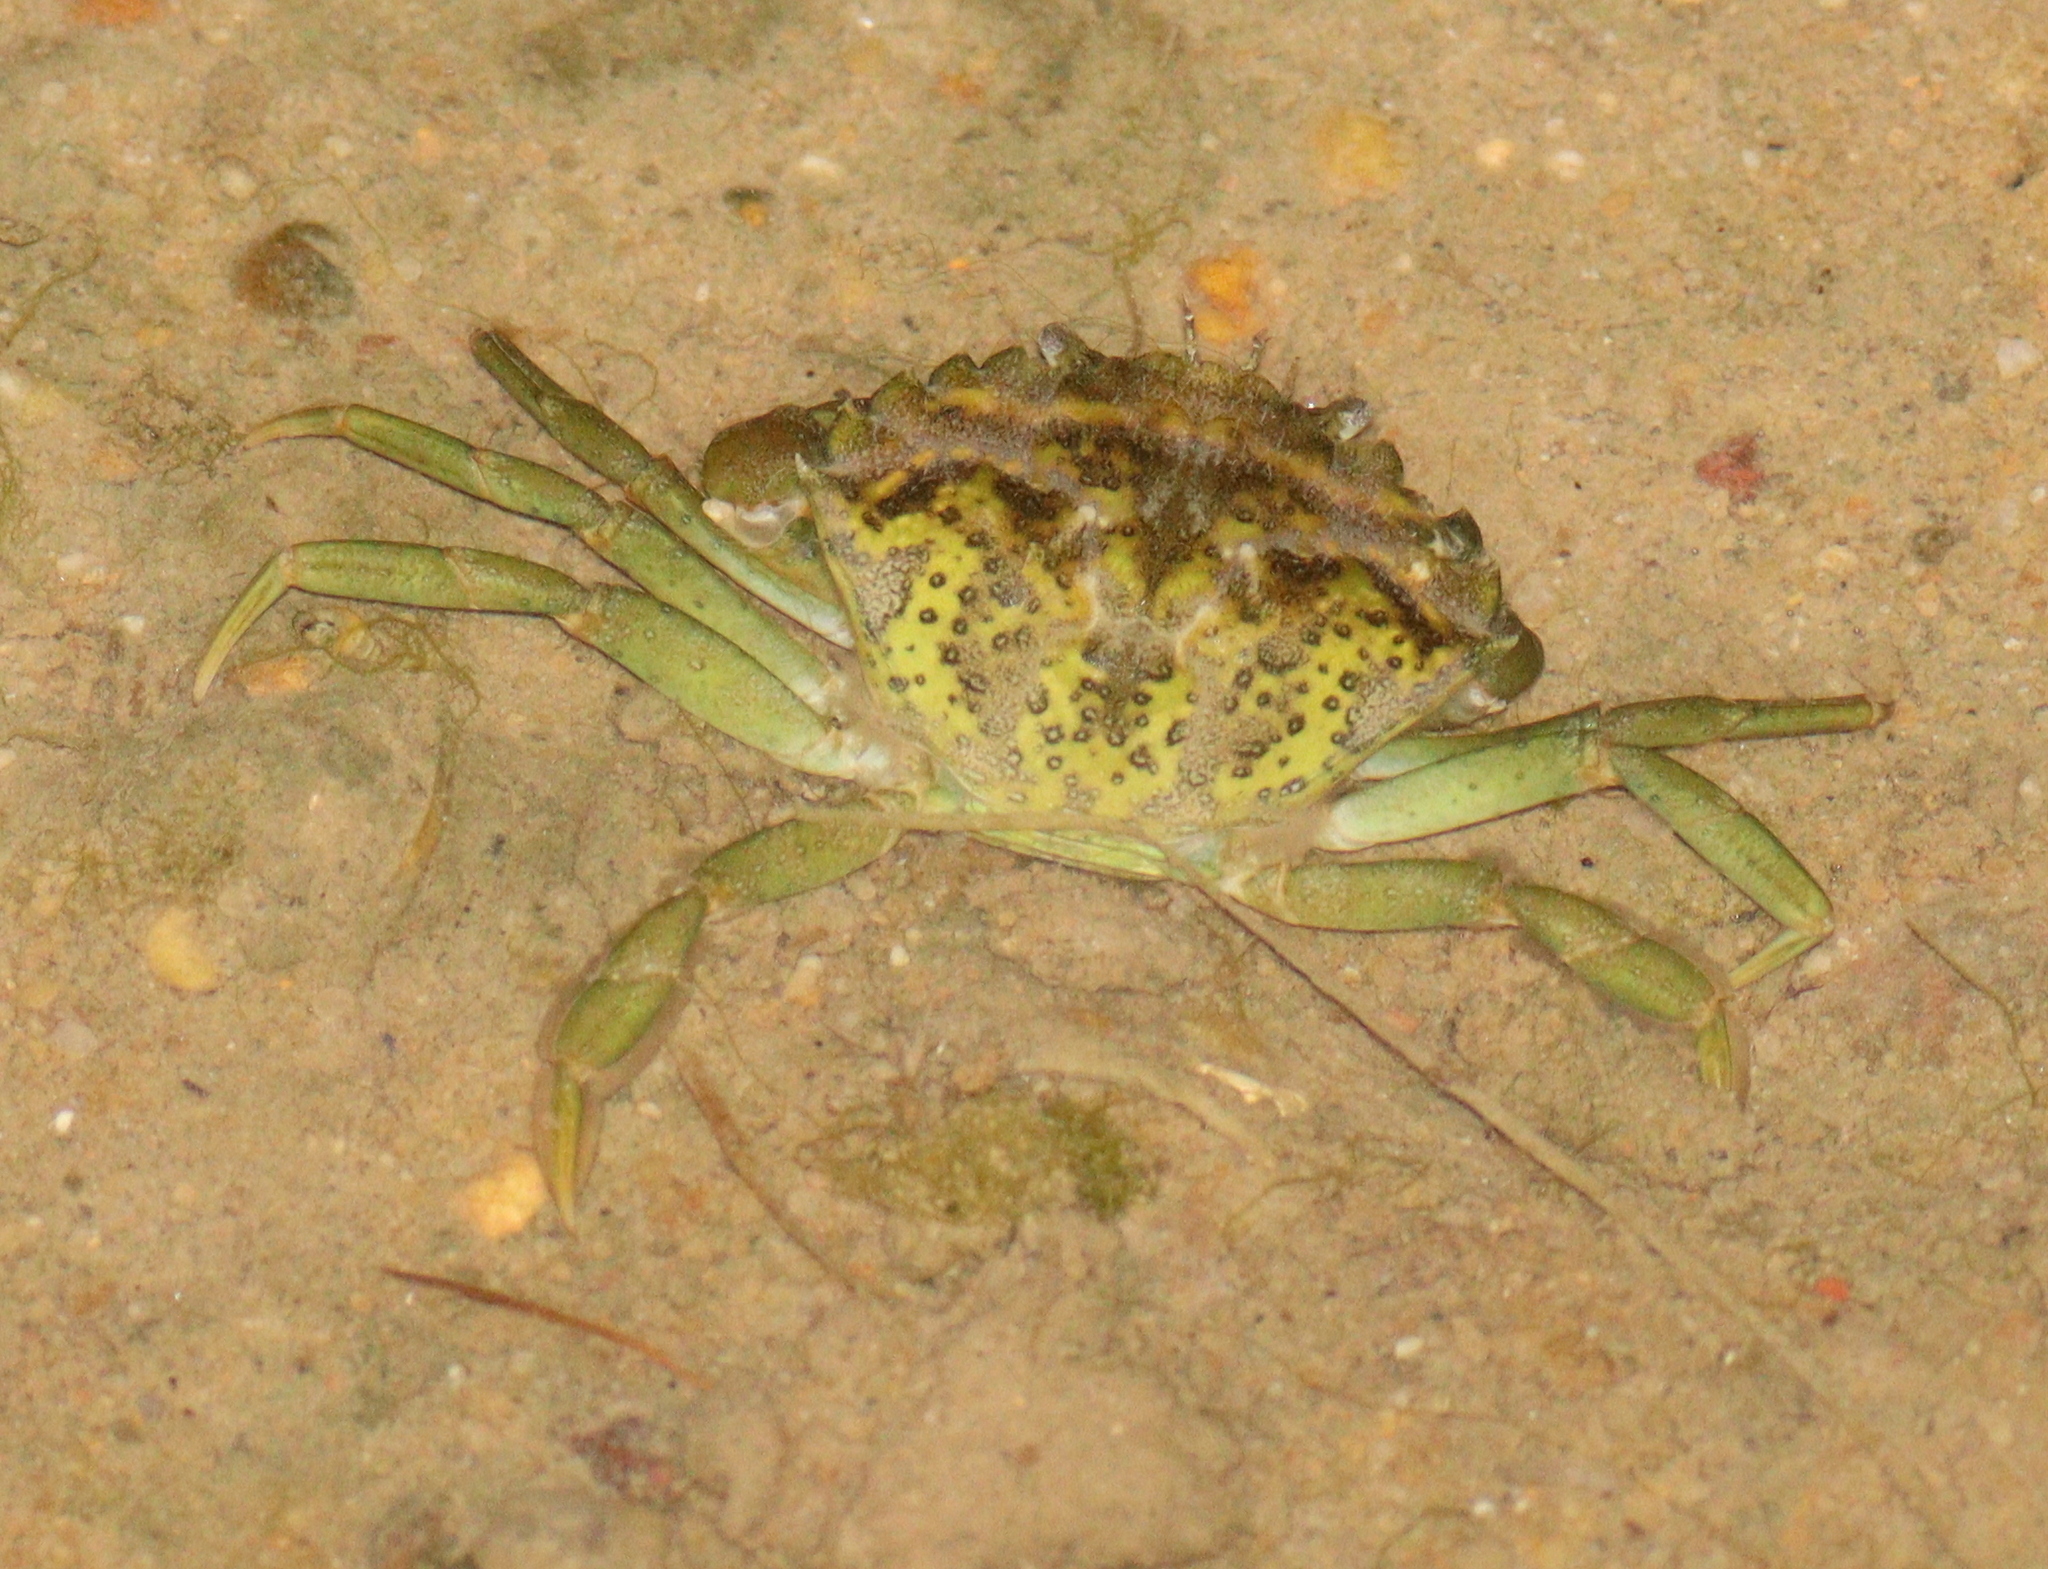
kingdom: Animalia
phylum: Arthropoda
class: Malacostraca
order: Decapoda
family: Carcinidae
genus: Carcinus
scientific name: Carcinus maenas
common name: European green crab
